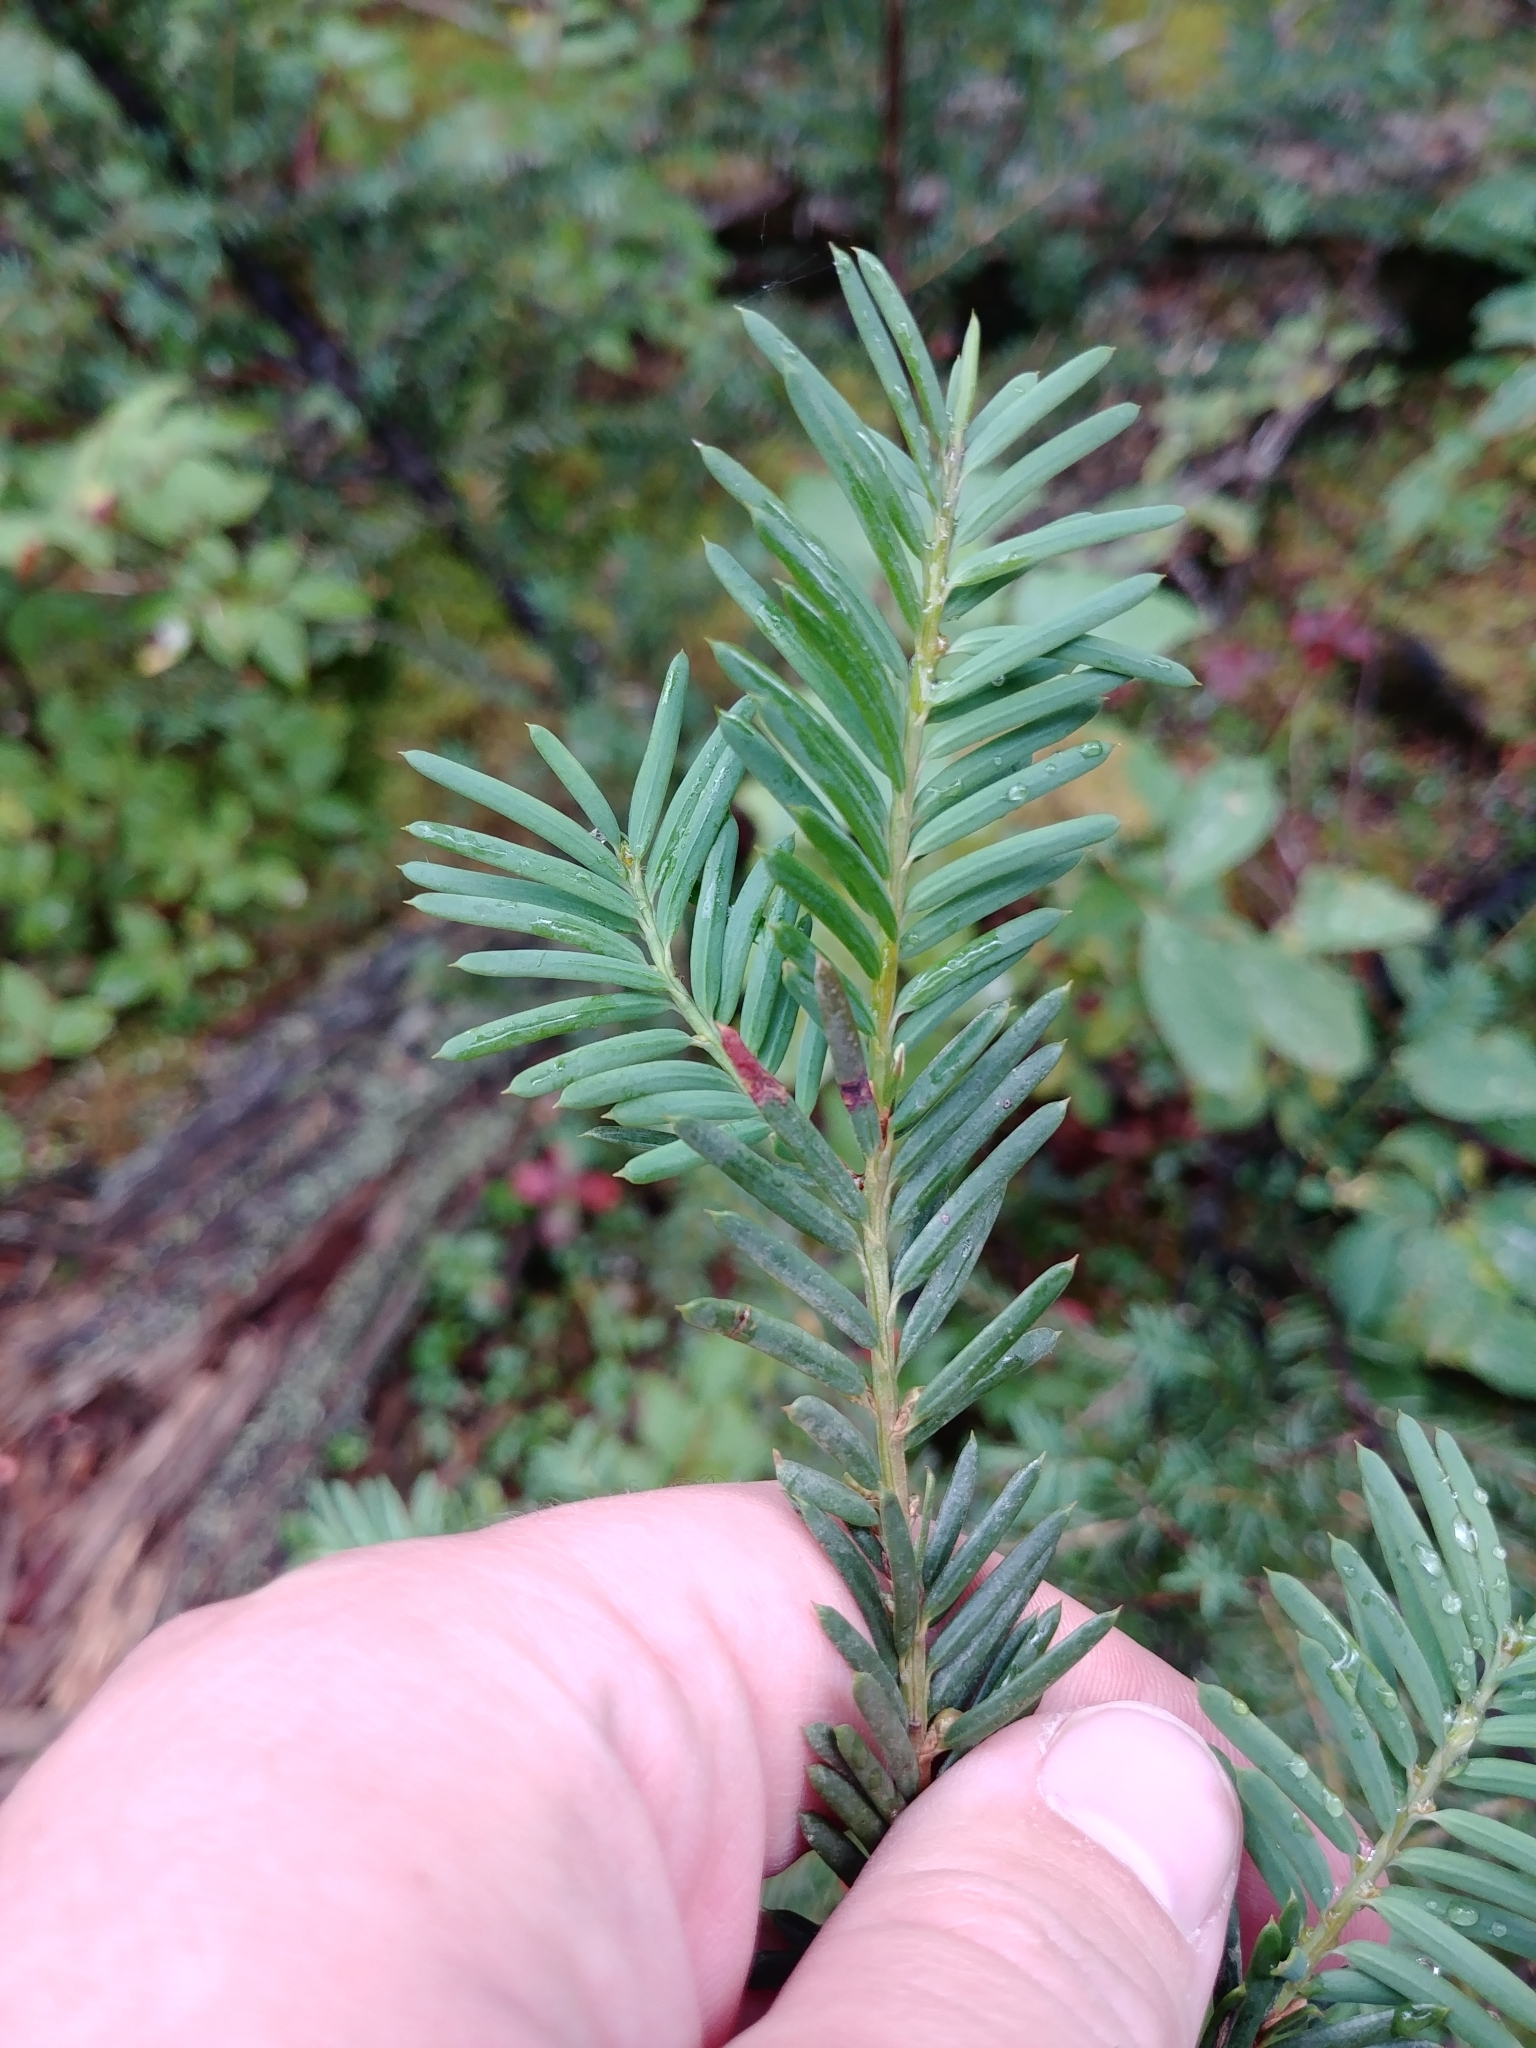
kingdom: Plantae
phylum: Tracheophyta
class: Pinopsida
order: Pinales
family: Taxaceae
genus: Taxus
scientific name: Taxus brevifolia
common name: Pacific yew
